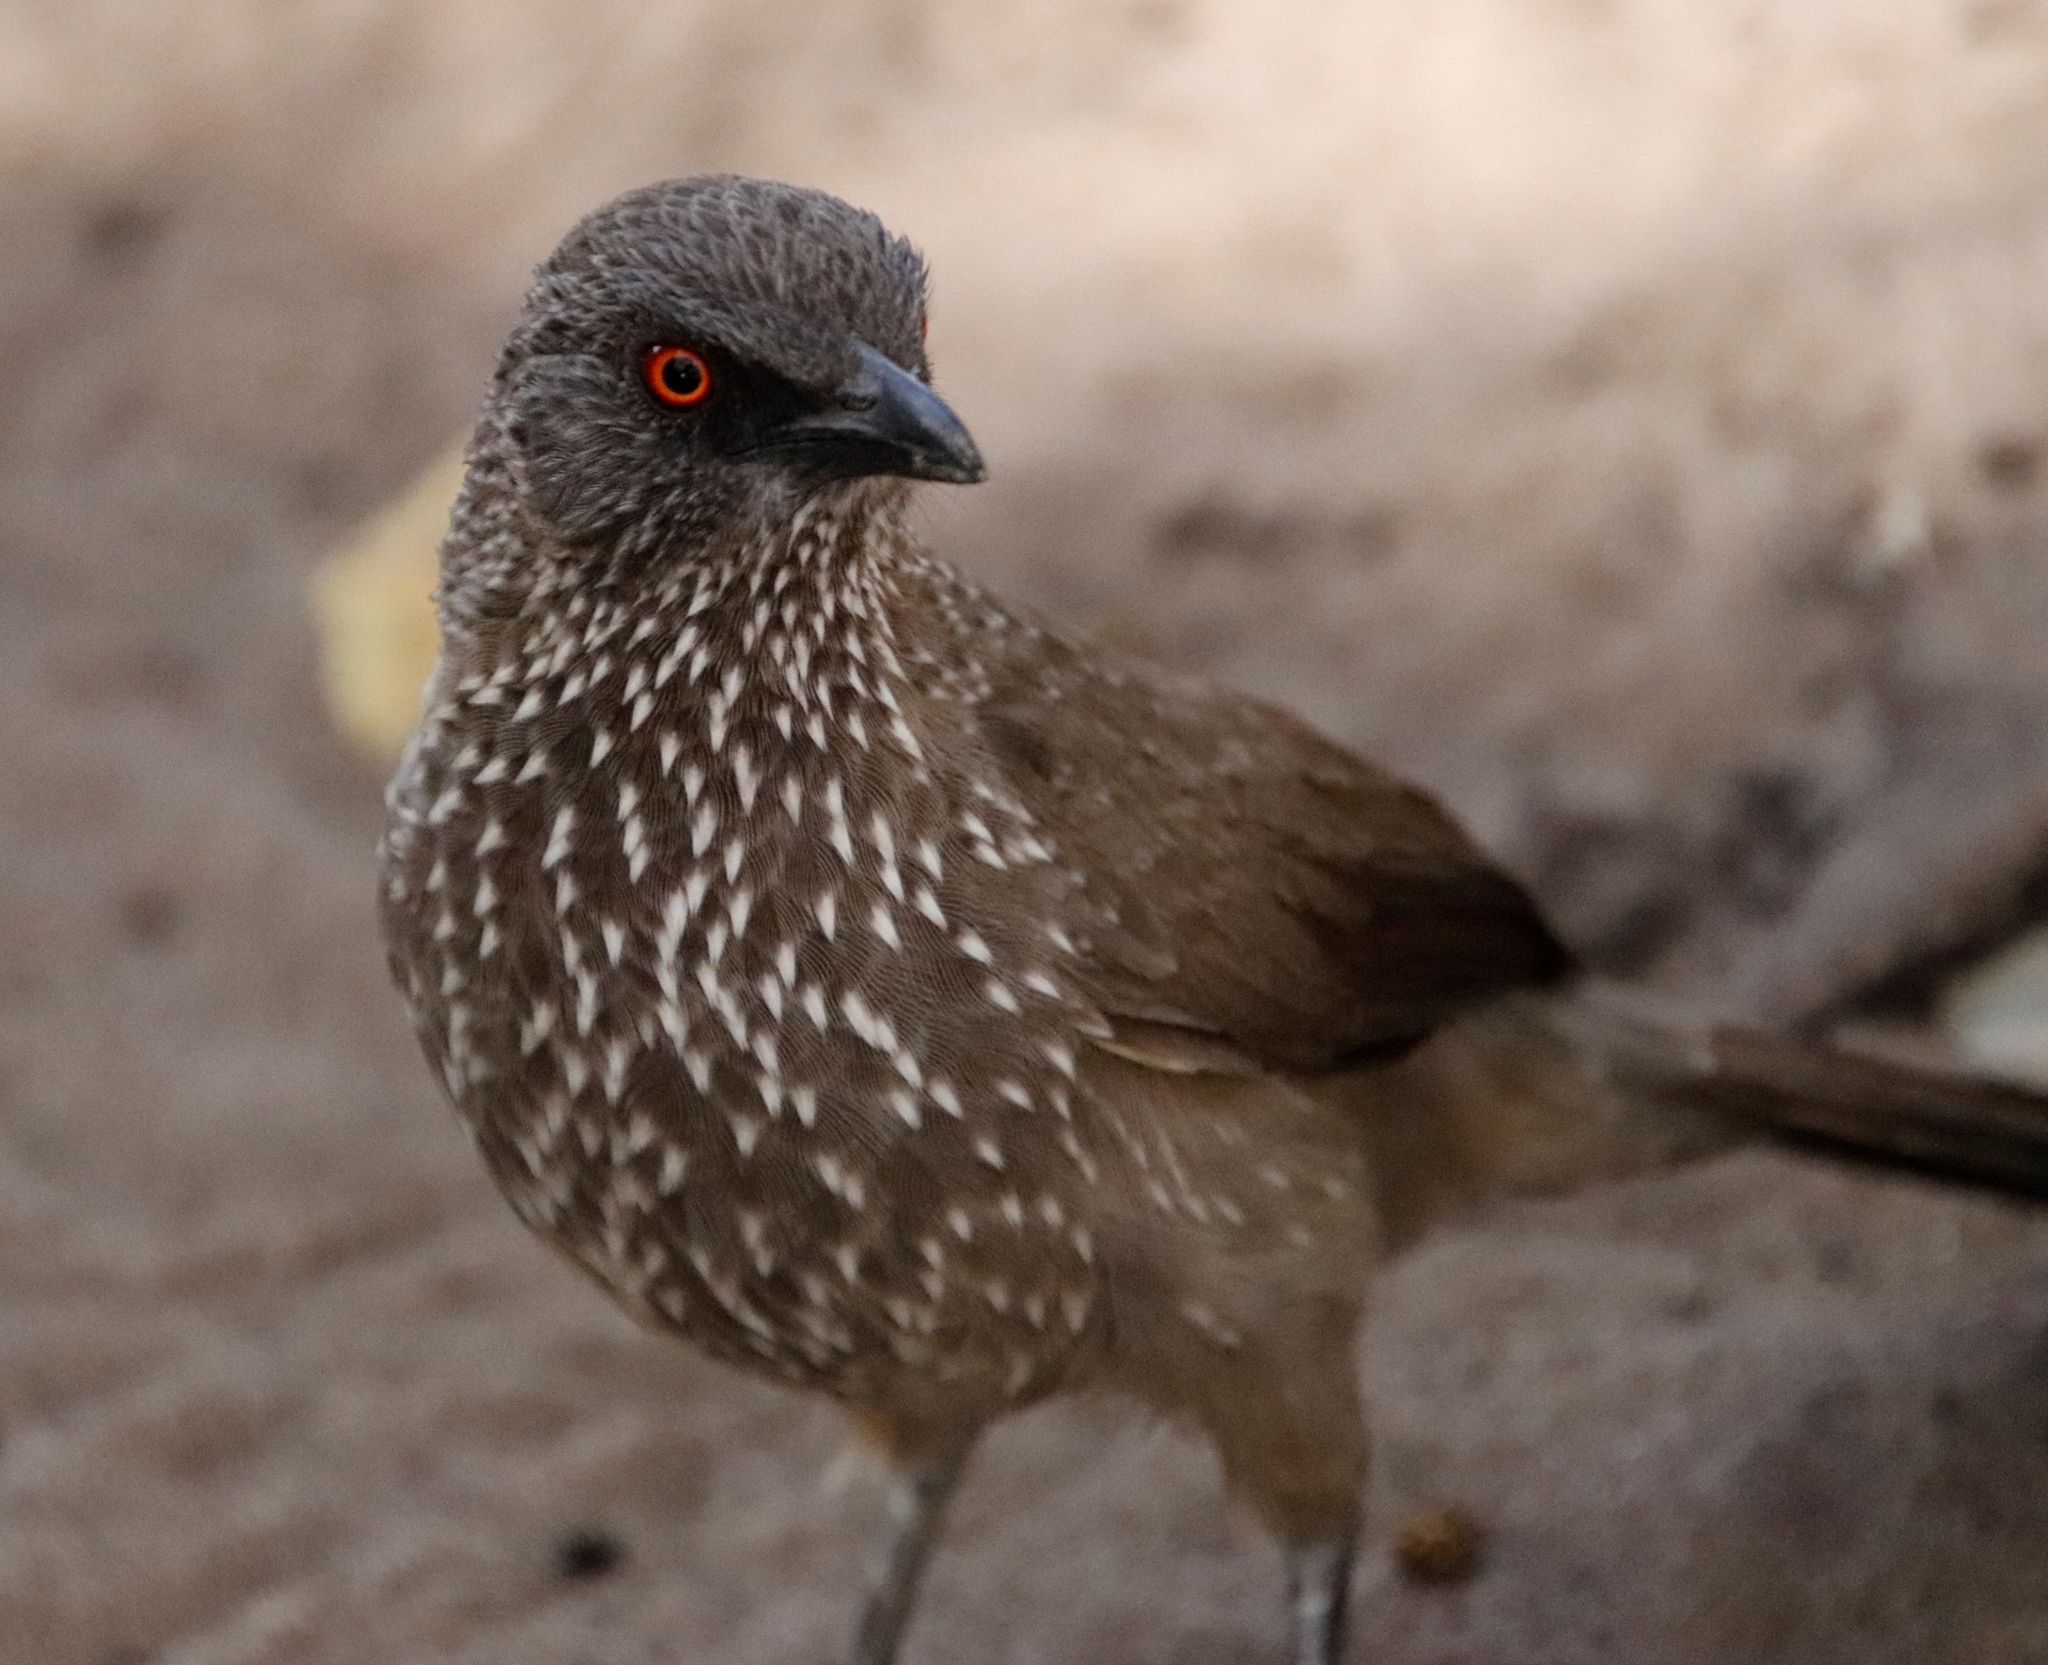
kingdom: Animalia
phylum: Chordata
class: Aves
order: Passeriformes
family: Leiothrichidae
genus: Turdoides
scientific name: Turdoides jardineii
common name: Arrow-marked babbler
